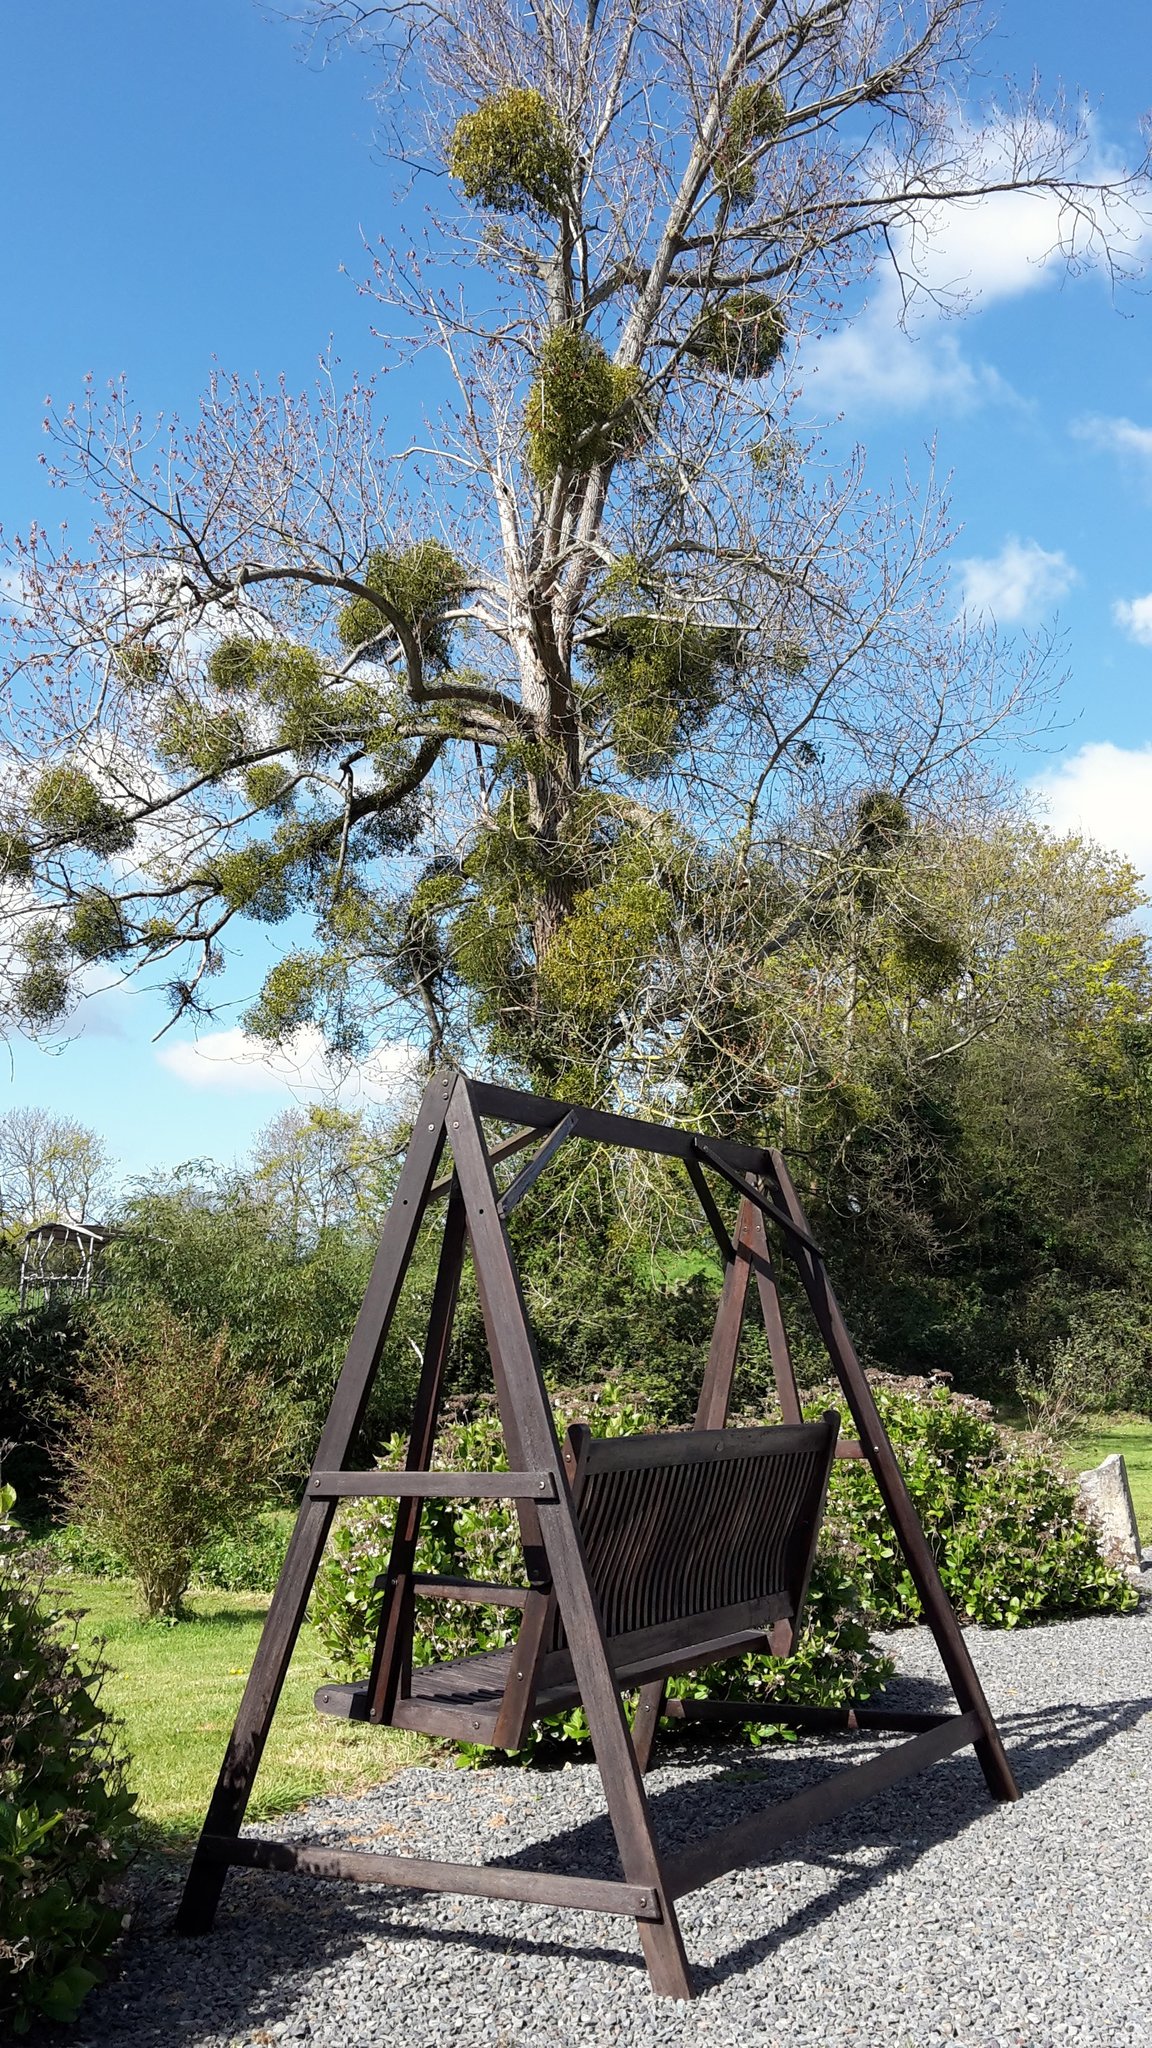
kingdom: Plantae
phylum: Tracheophyta
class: Magnoliopsida
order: Santalales
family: Viscaceae
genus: Viscum
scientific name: Viscum album
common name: Mistletoe
